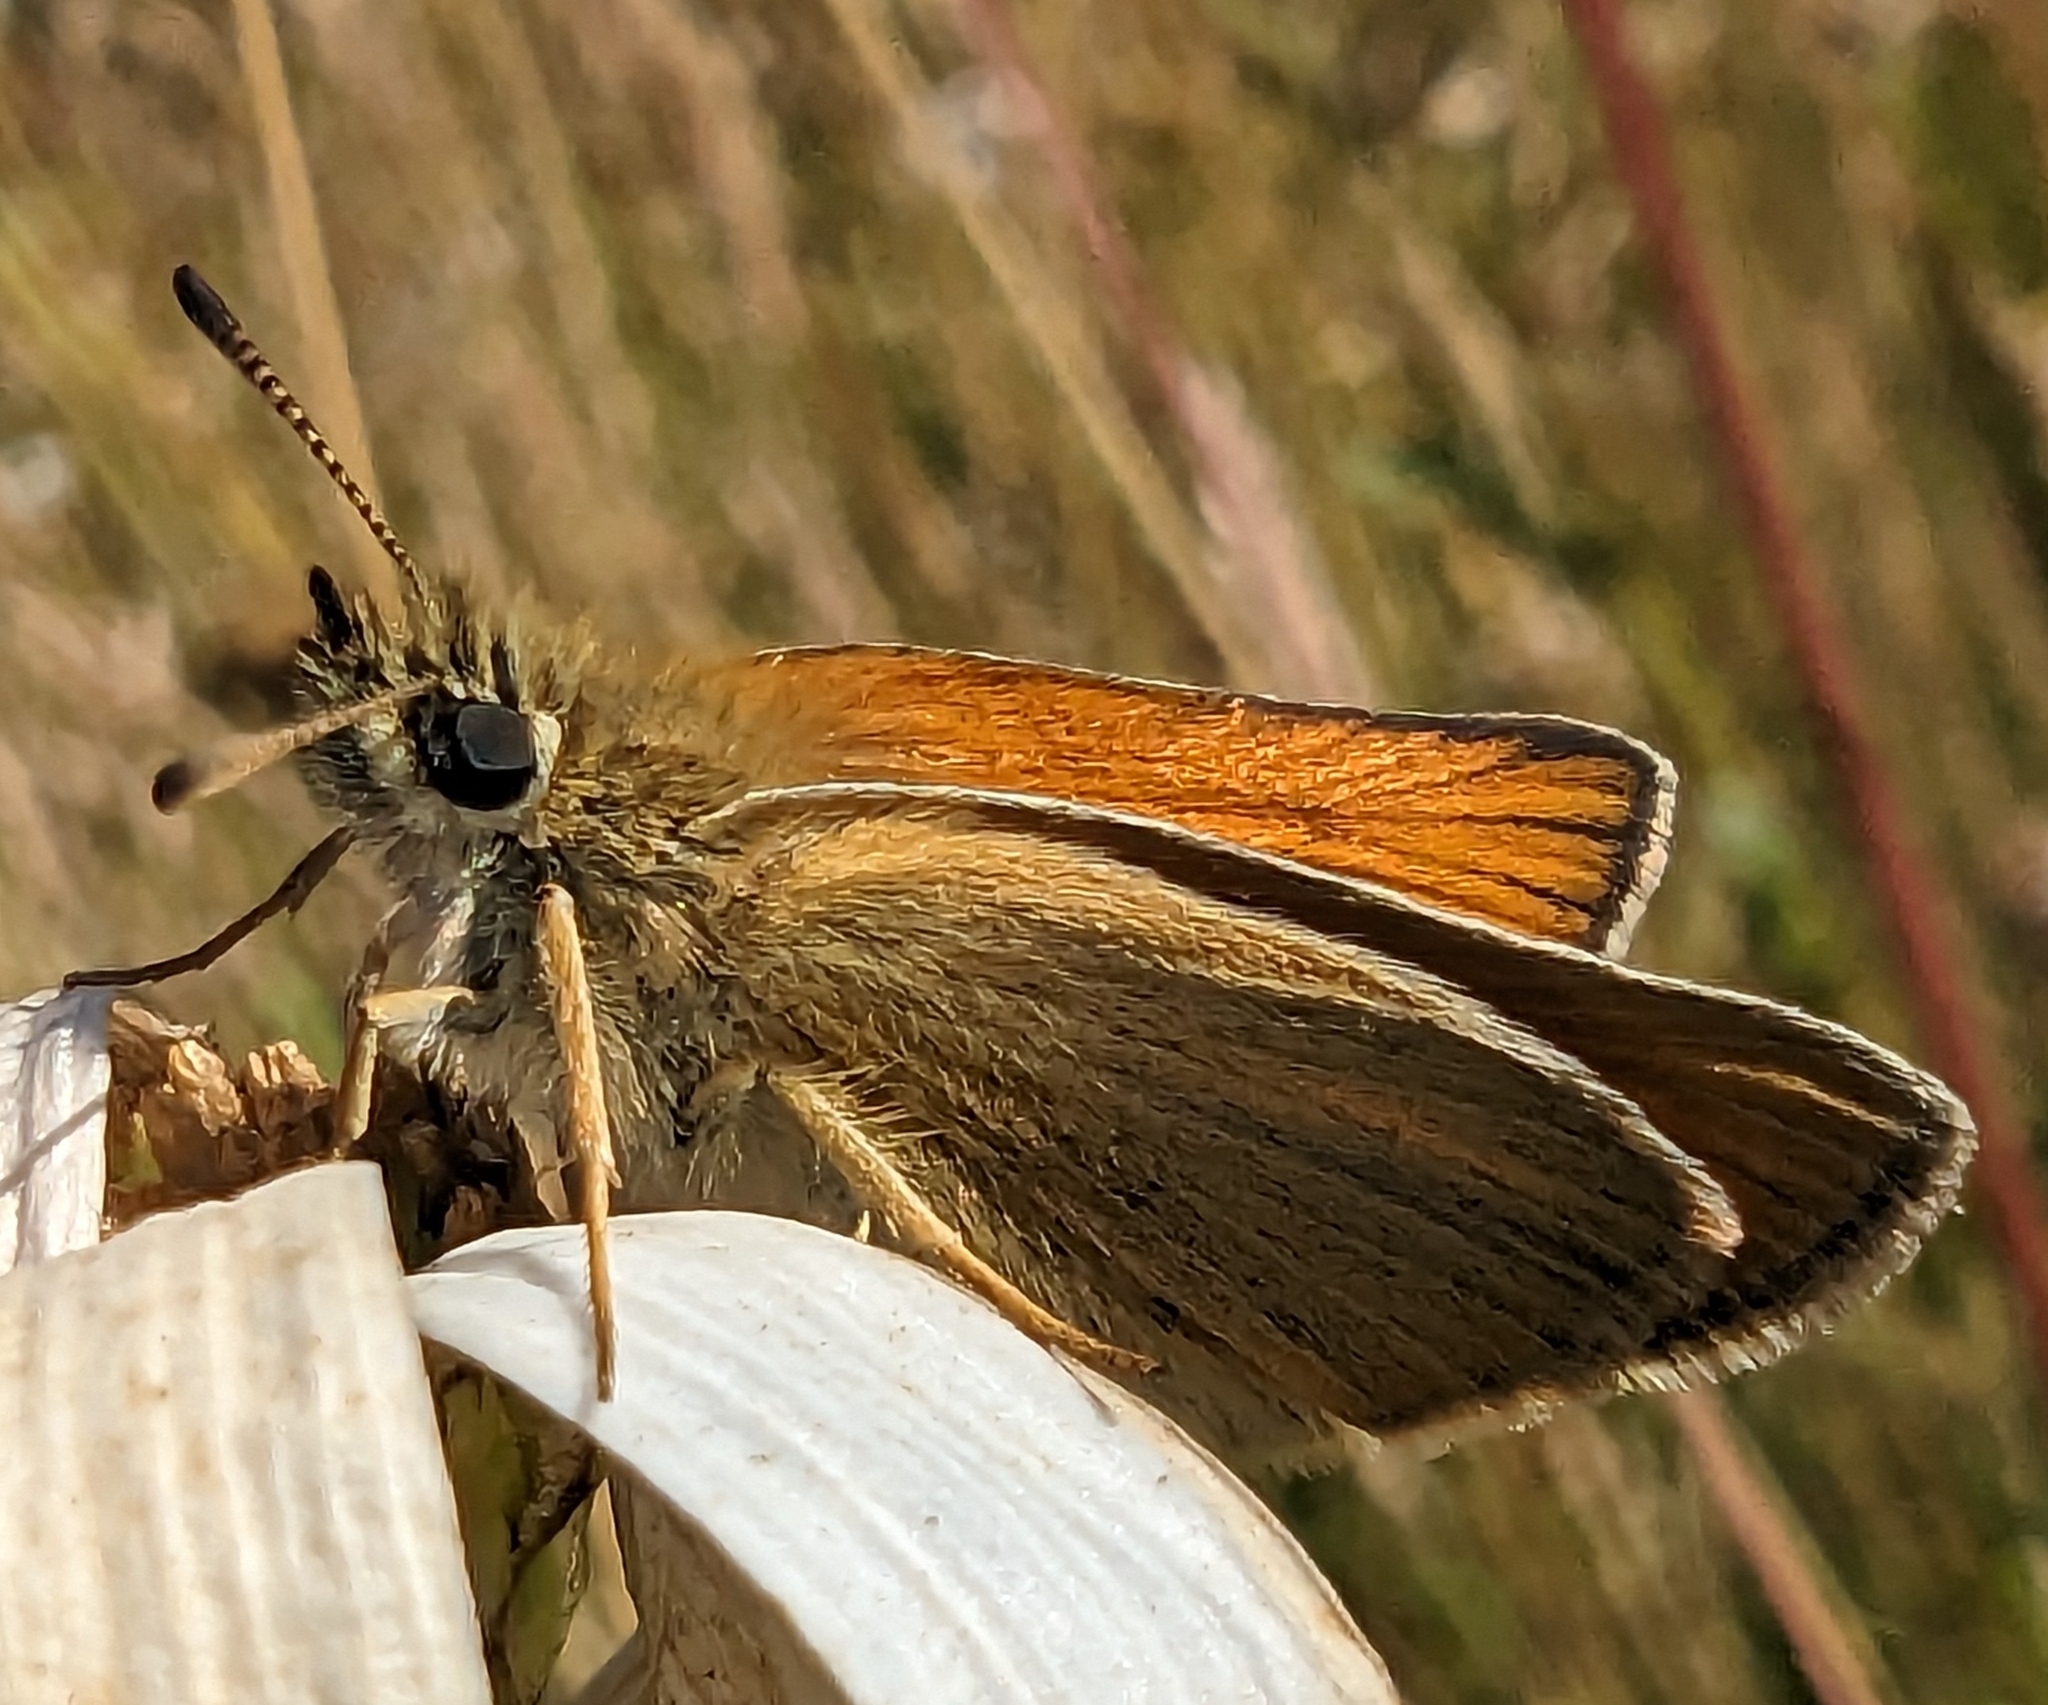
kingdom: Animalia
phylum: Arthropoda
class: Insecta
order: Lepidoptera
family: Hesperiidae
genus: Thymelicus
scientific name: Thymelicus lineola
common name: Essex skipper
